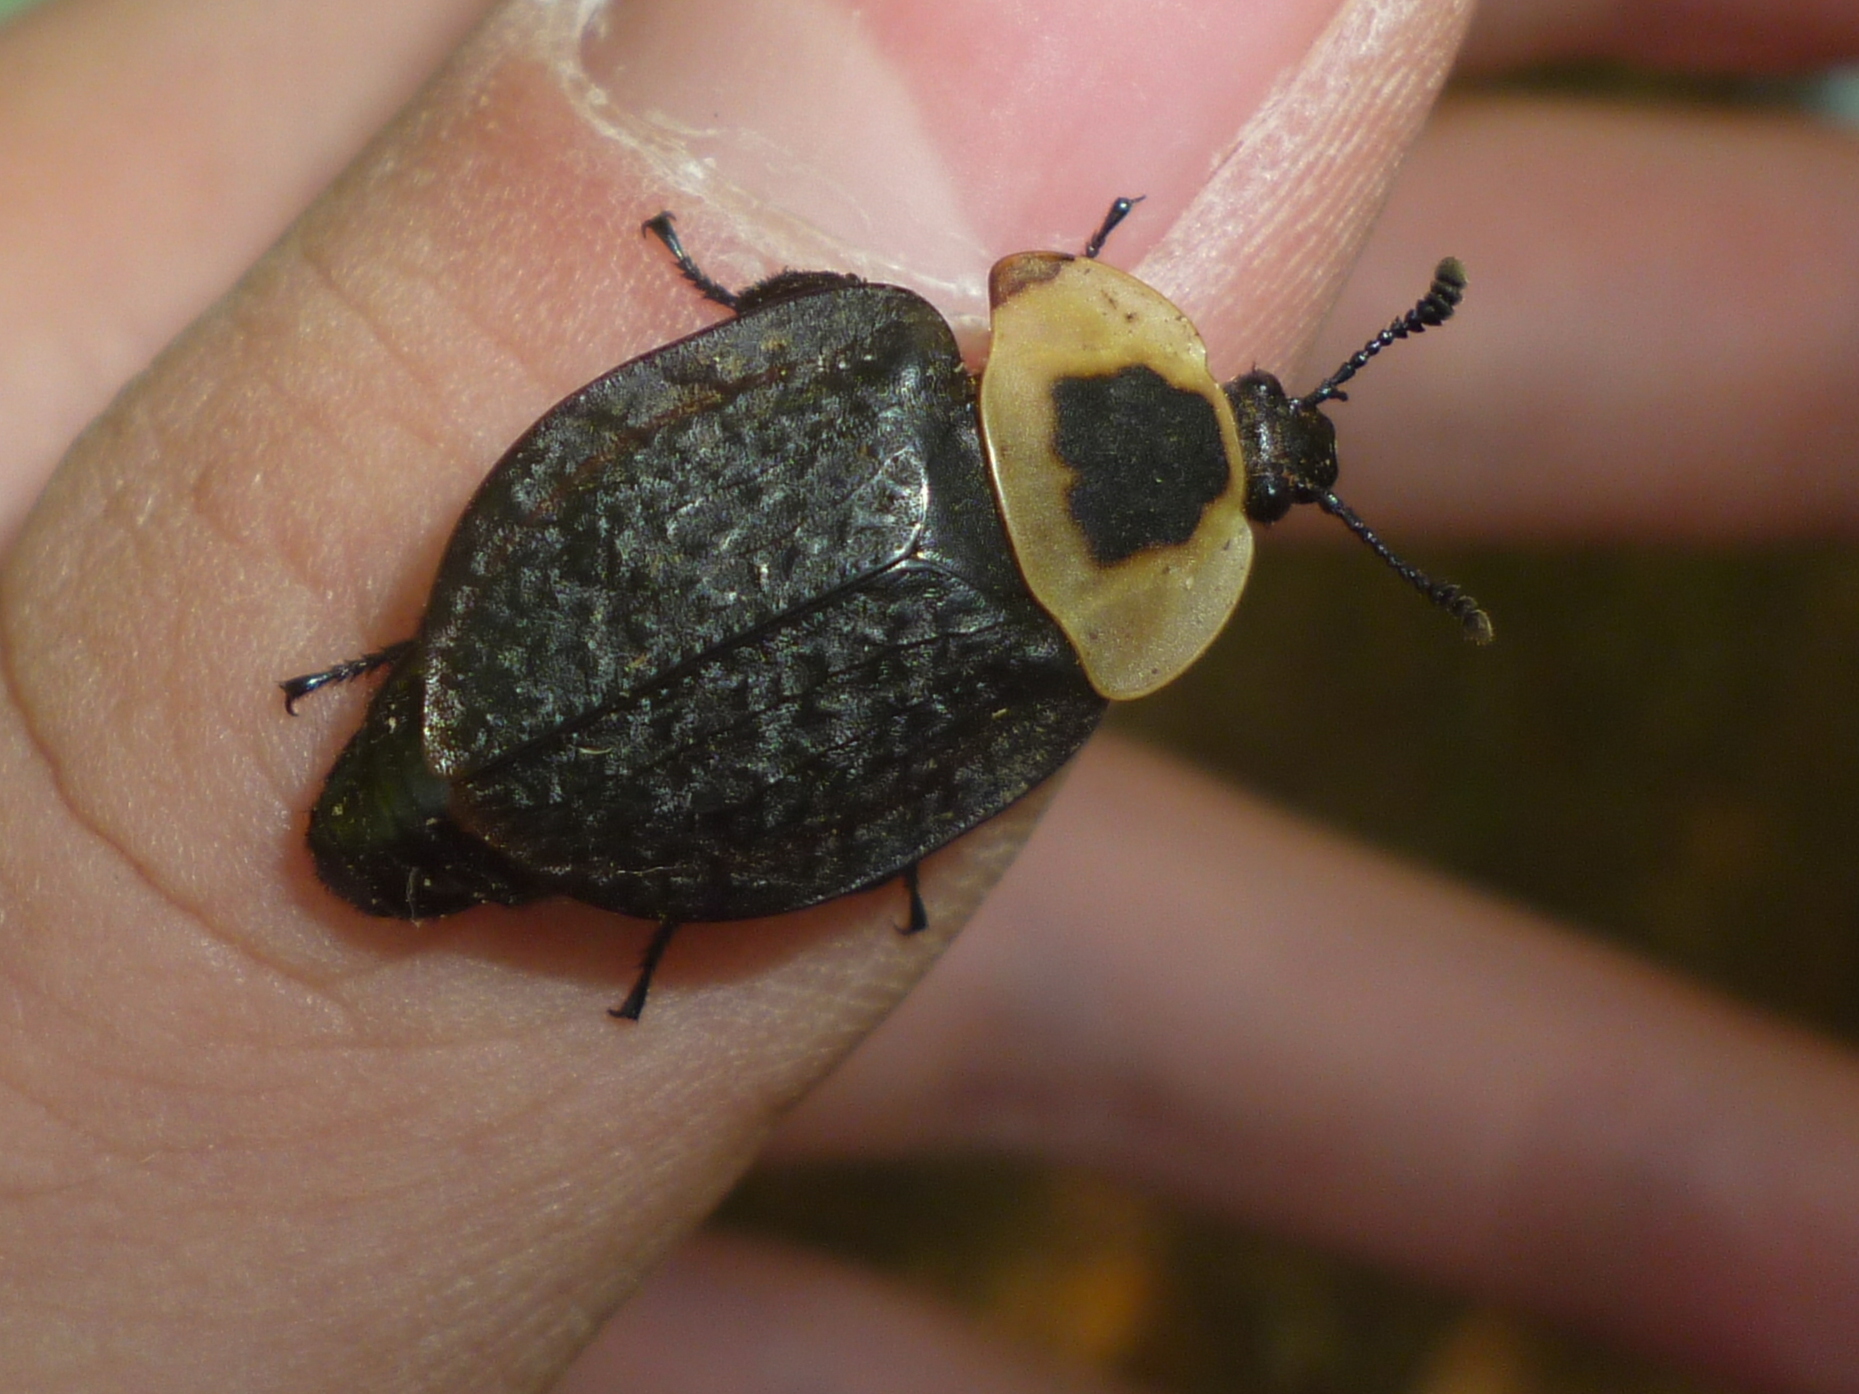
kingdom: Animalia
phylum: Arthropoda
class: Insecta
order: Coleoptera
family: Staphylinidae
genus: Necrophila
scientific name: Necrophila americana
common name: American carrion beetle
